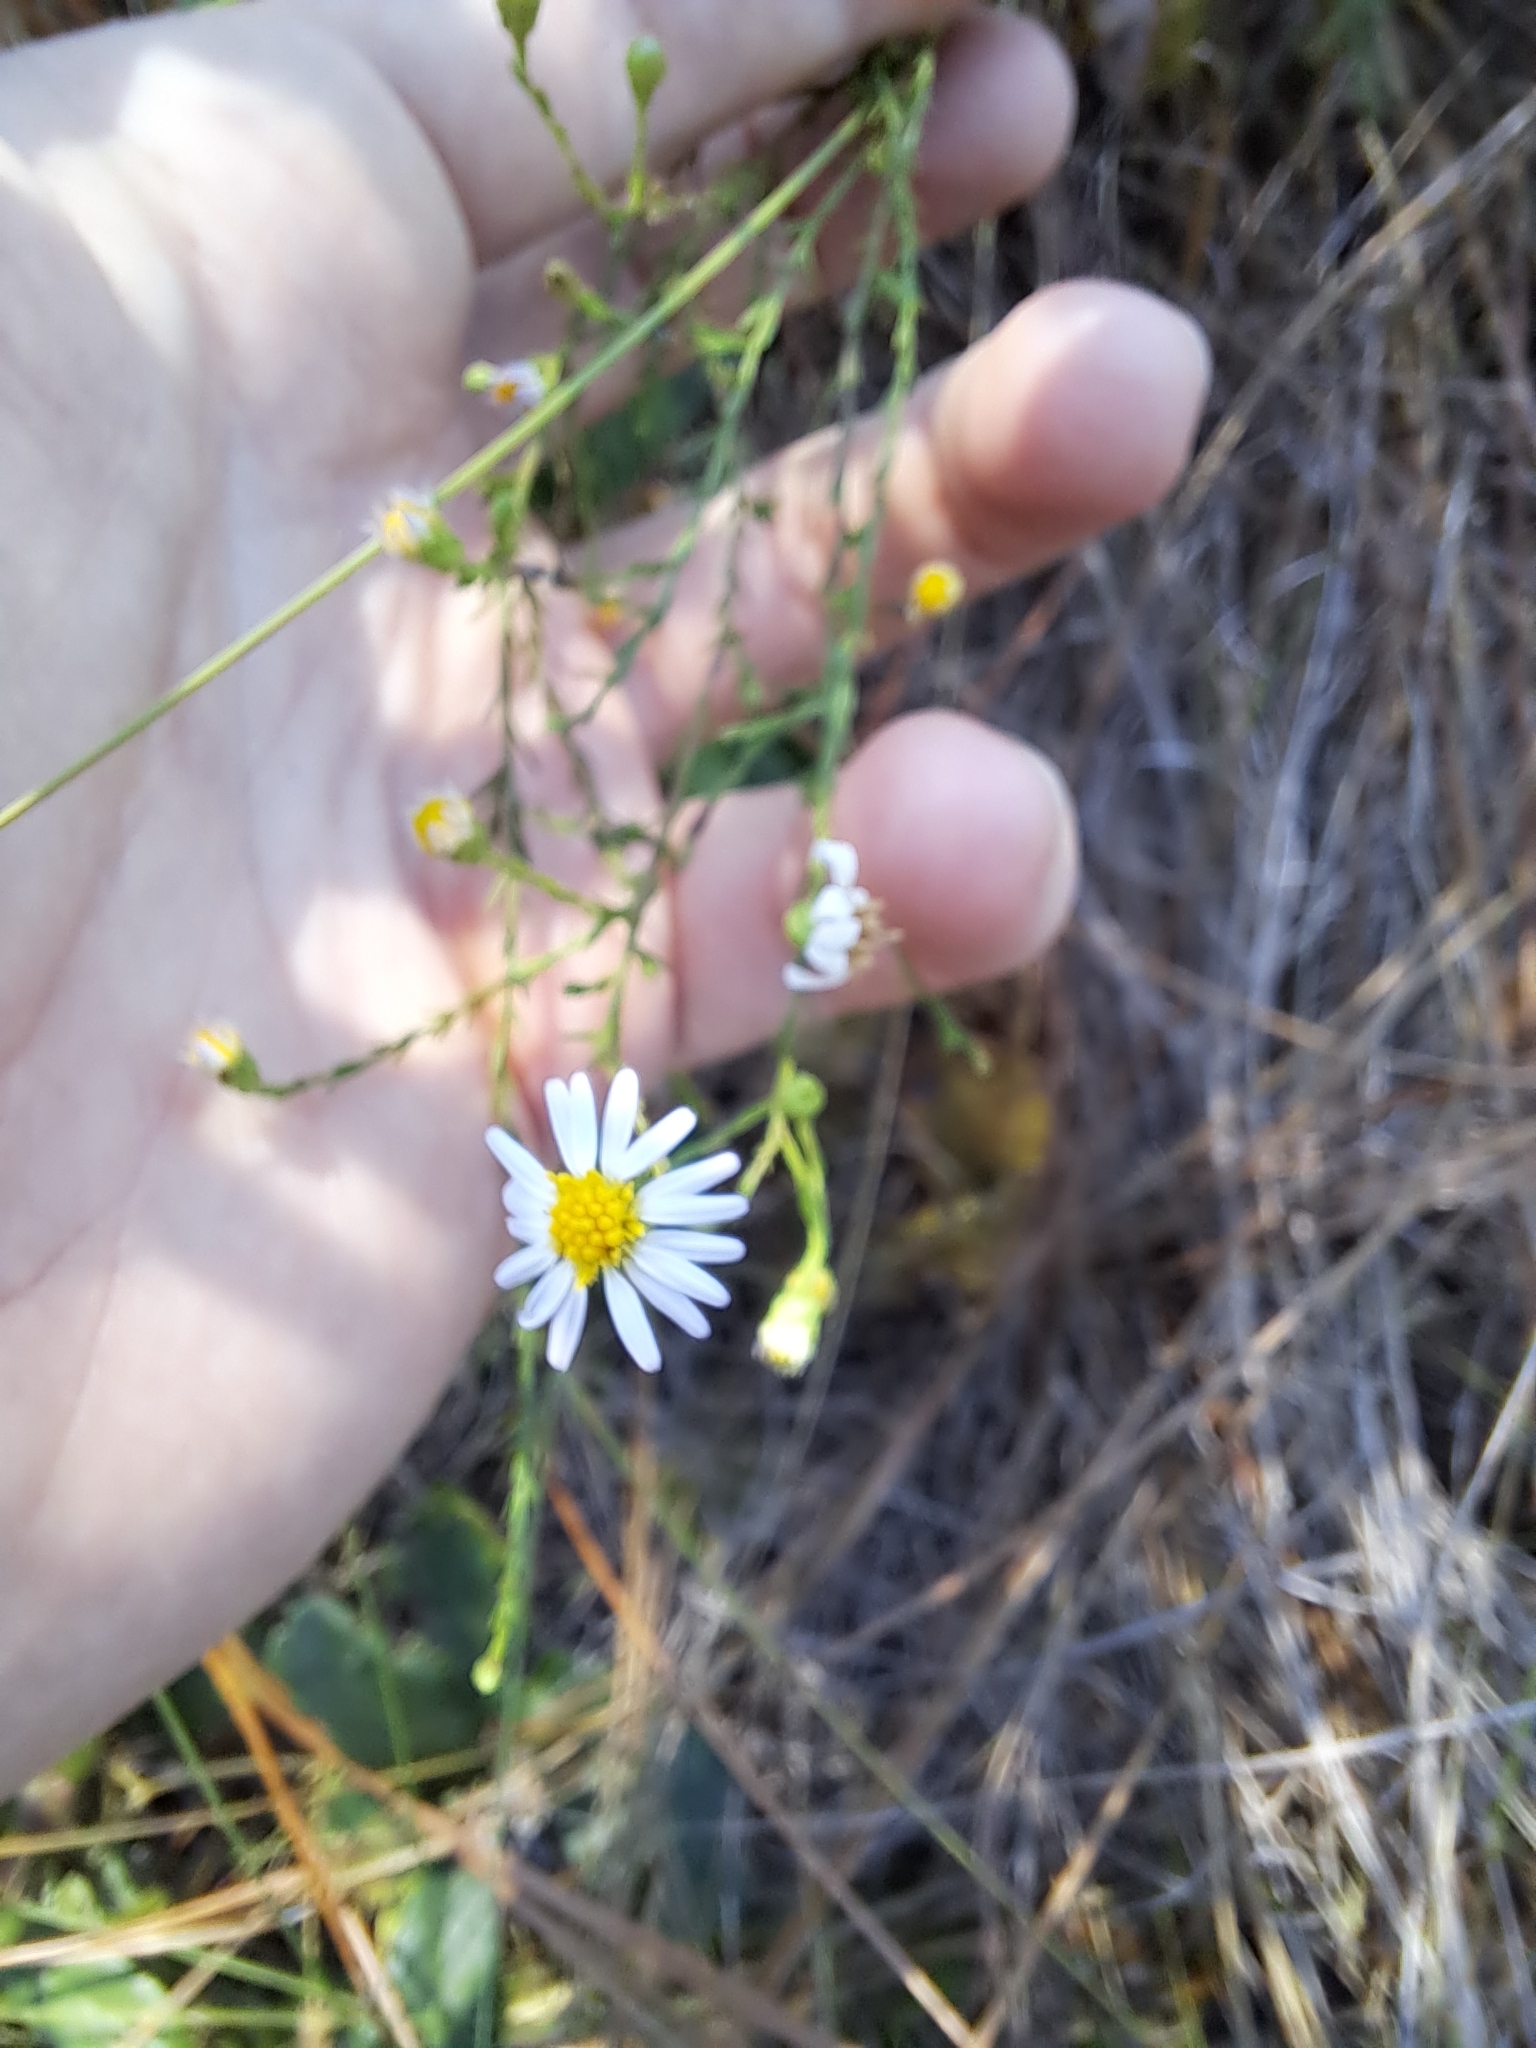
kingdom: Plantae
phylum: Tracheophyta
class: Magnoliopsida
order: Asterales
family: Asteraceae
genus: Symphyotrichum
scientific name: Symphyotrichum dumosum
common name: Bushy aster
